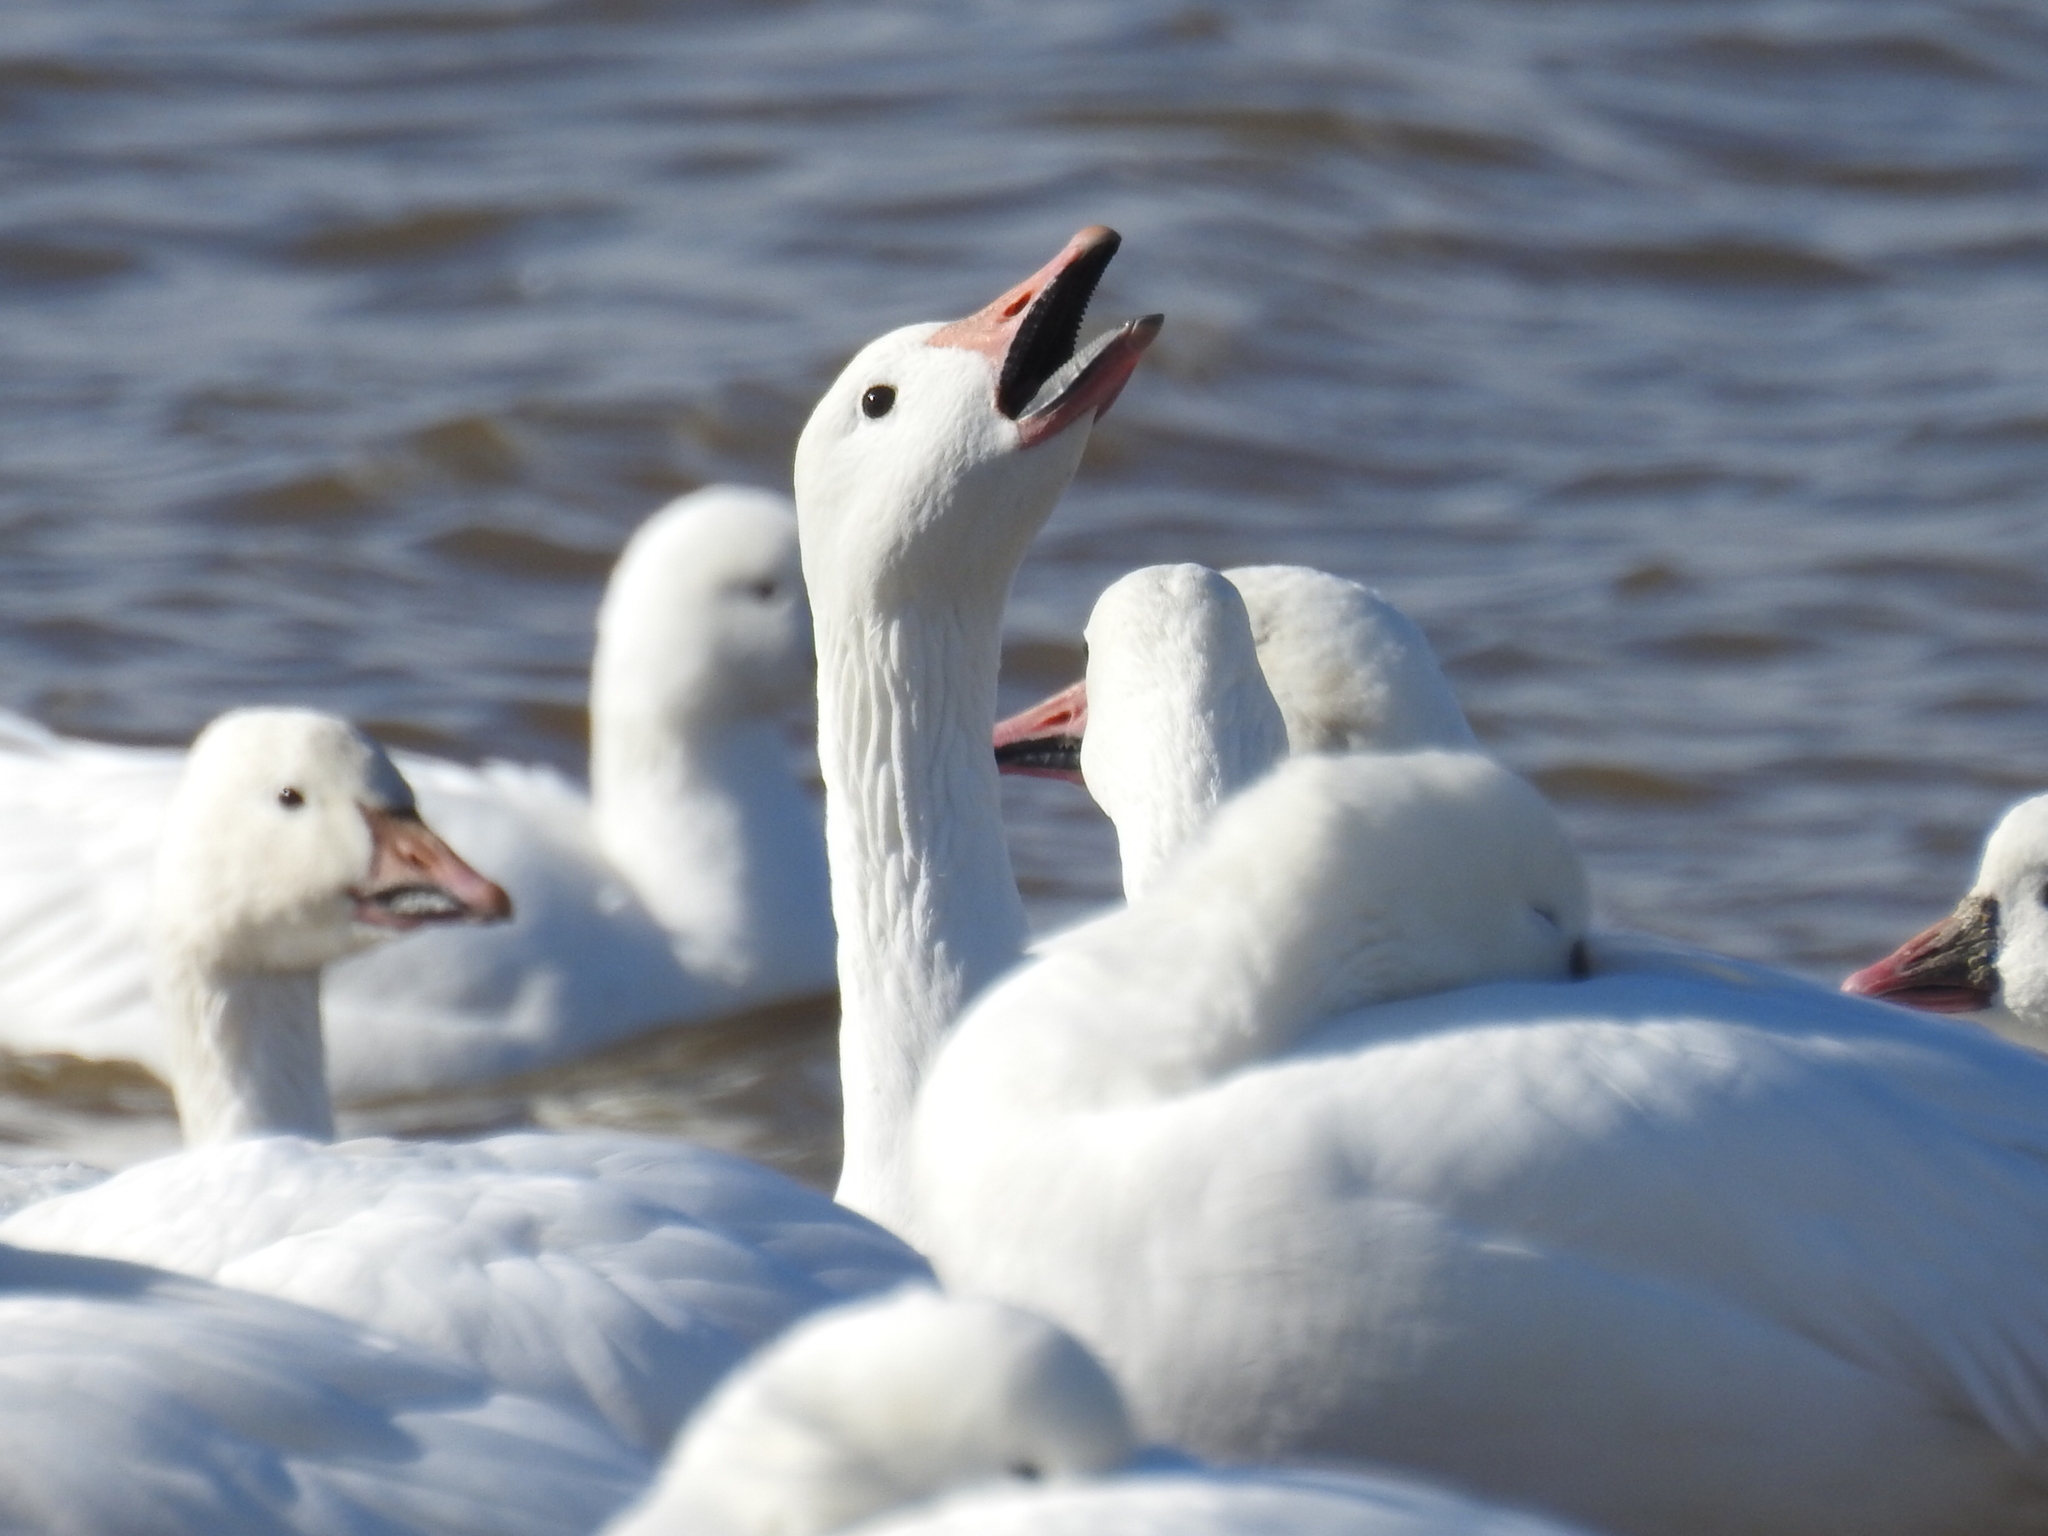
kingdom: Animalia
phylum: Chordata
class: Aves
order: Anseriformes
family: Anatidae
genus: Anser
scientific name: Anser caerulescens
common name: Snow goose
